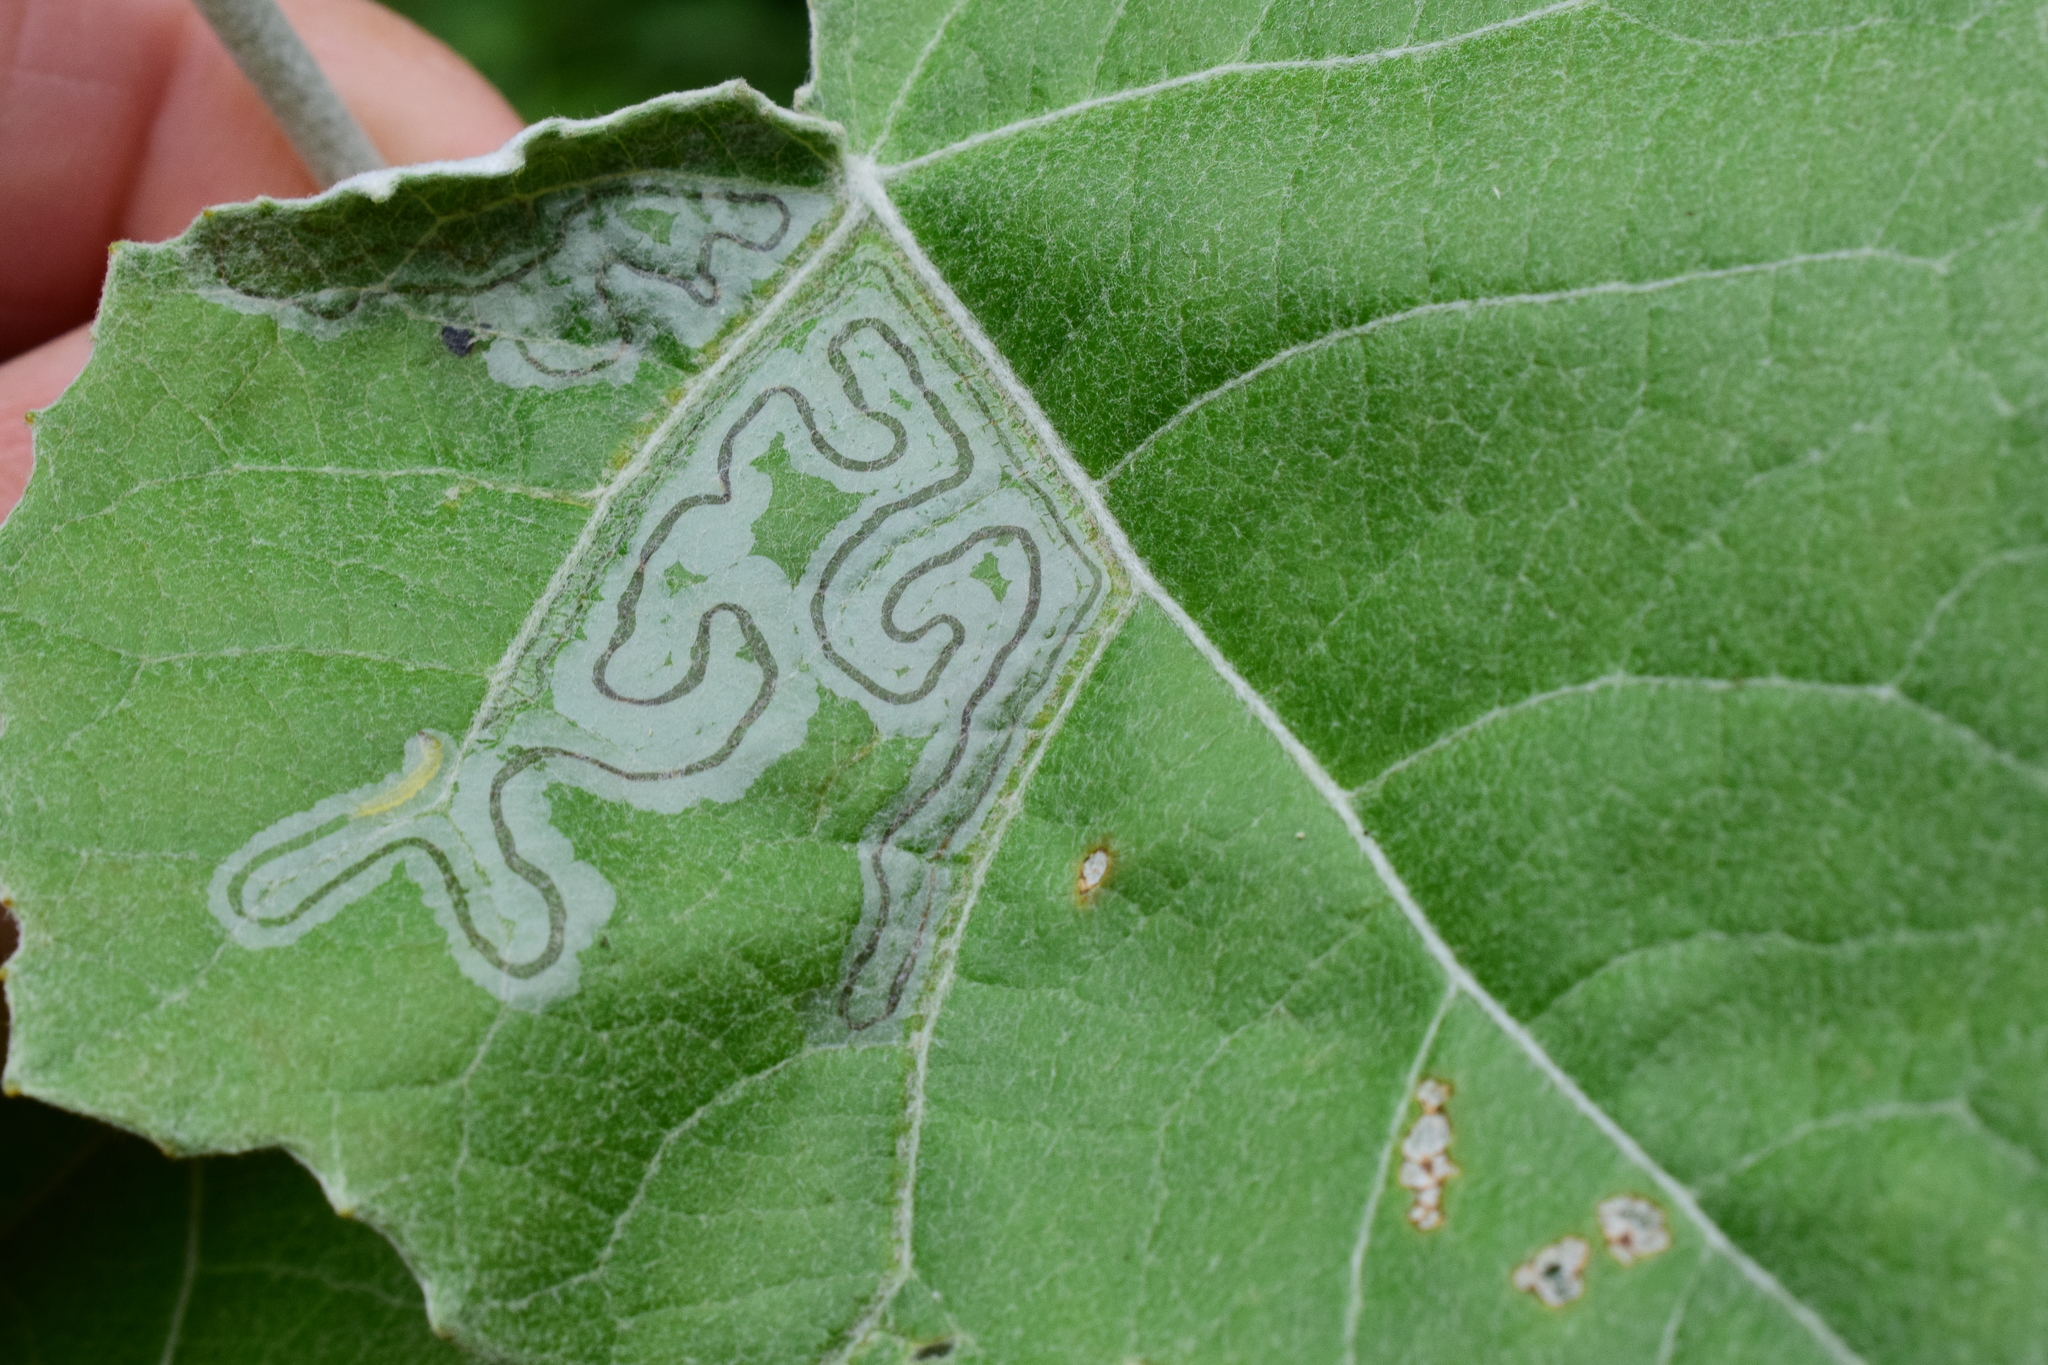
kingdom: Animalia
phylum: Arthropoda
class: Insecta
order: Lepidoptera
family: Gracillariidae
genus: Phyllocnistis
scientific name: Phyllocnistis populiella
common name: Aspen serpentine leafminer moth
